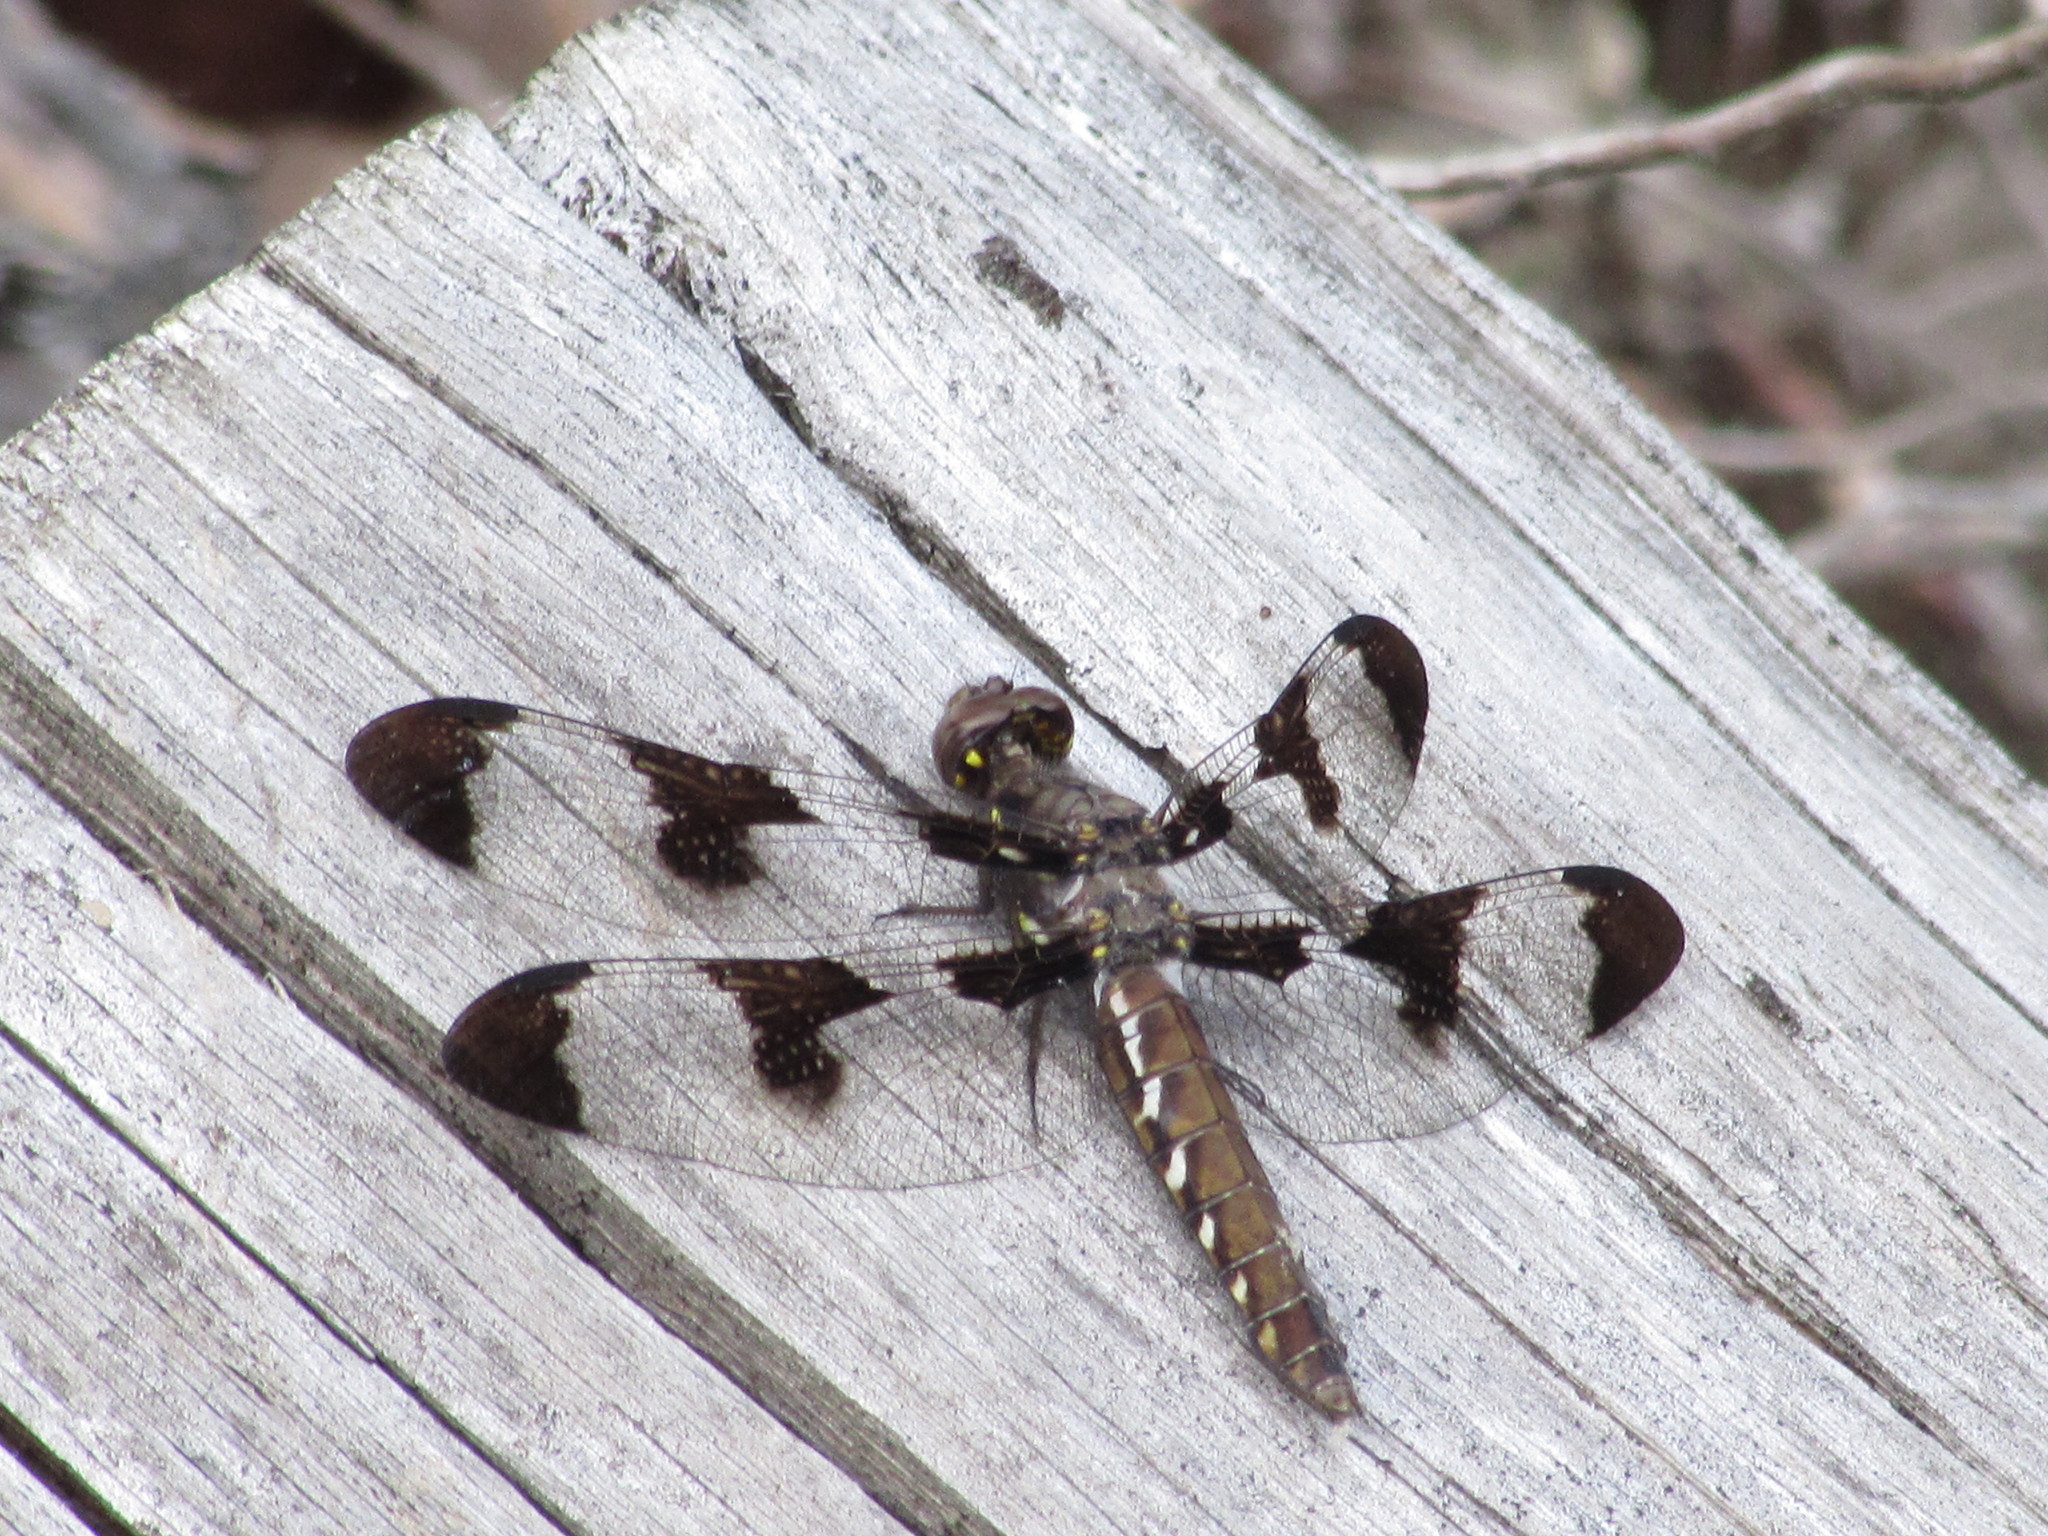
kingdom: Animalia
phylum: Arthropoda
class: Insecta
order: Odonata
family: Libellulidae
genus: Plathemis
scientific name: Plathemis lydia
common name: Common whitetail
